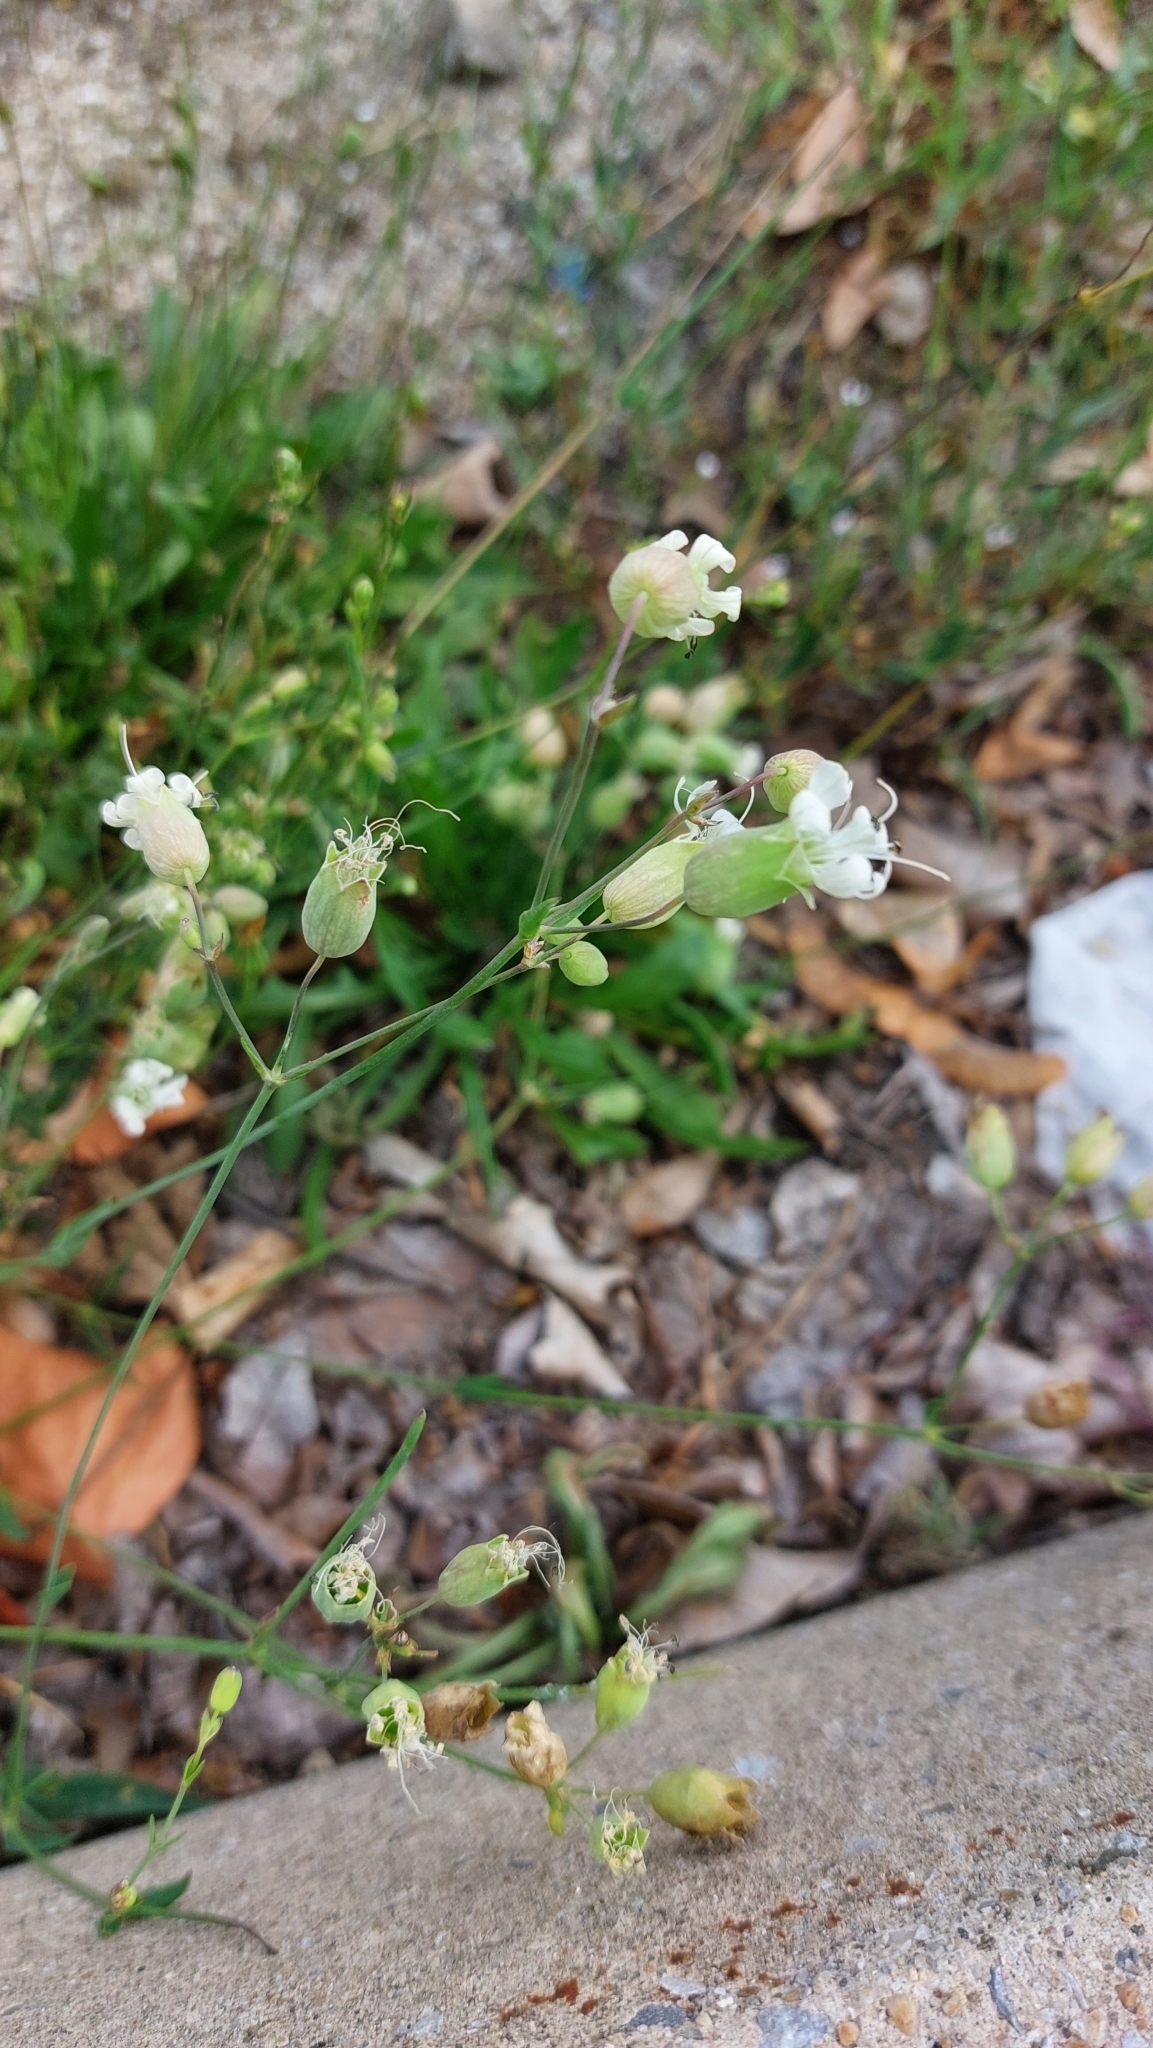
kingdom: Plantae
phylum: Tracheophyta
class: Magnoliopsida
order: Caryophyllales
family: Caryophyllaceae
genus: Silene
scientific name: Silene vulgaris
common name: Bladder campion
